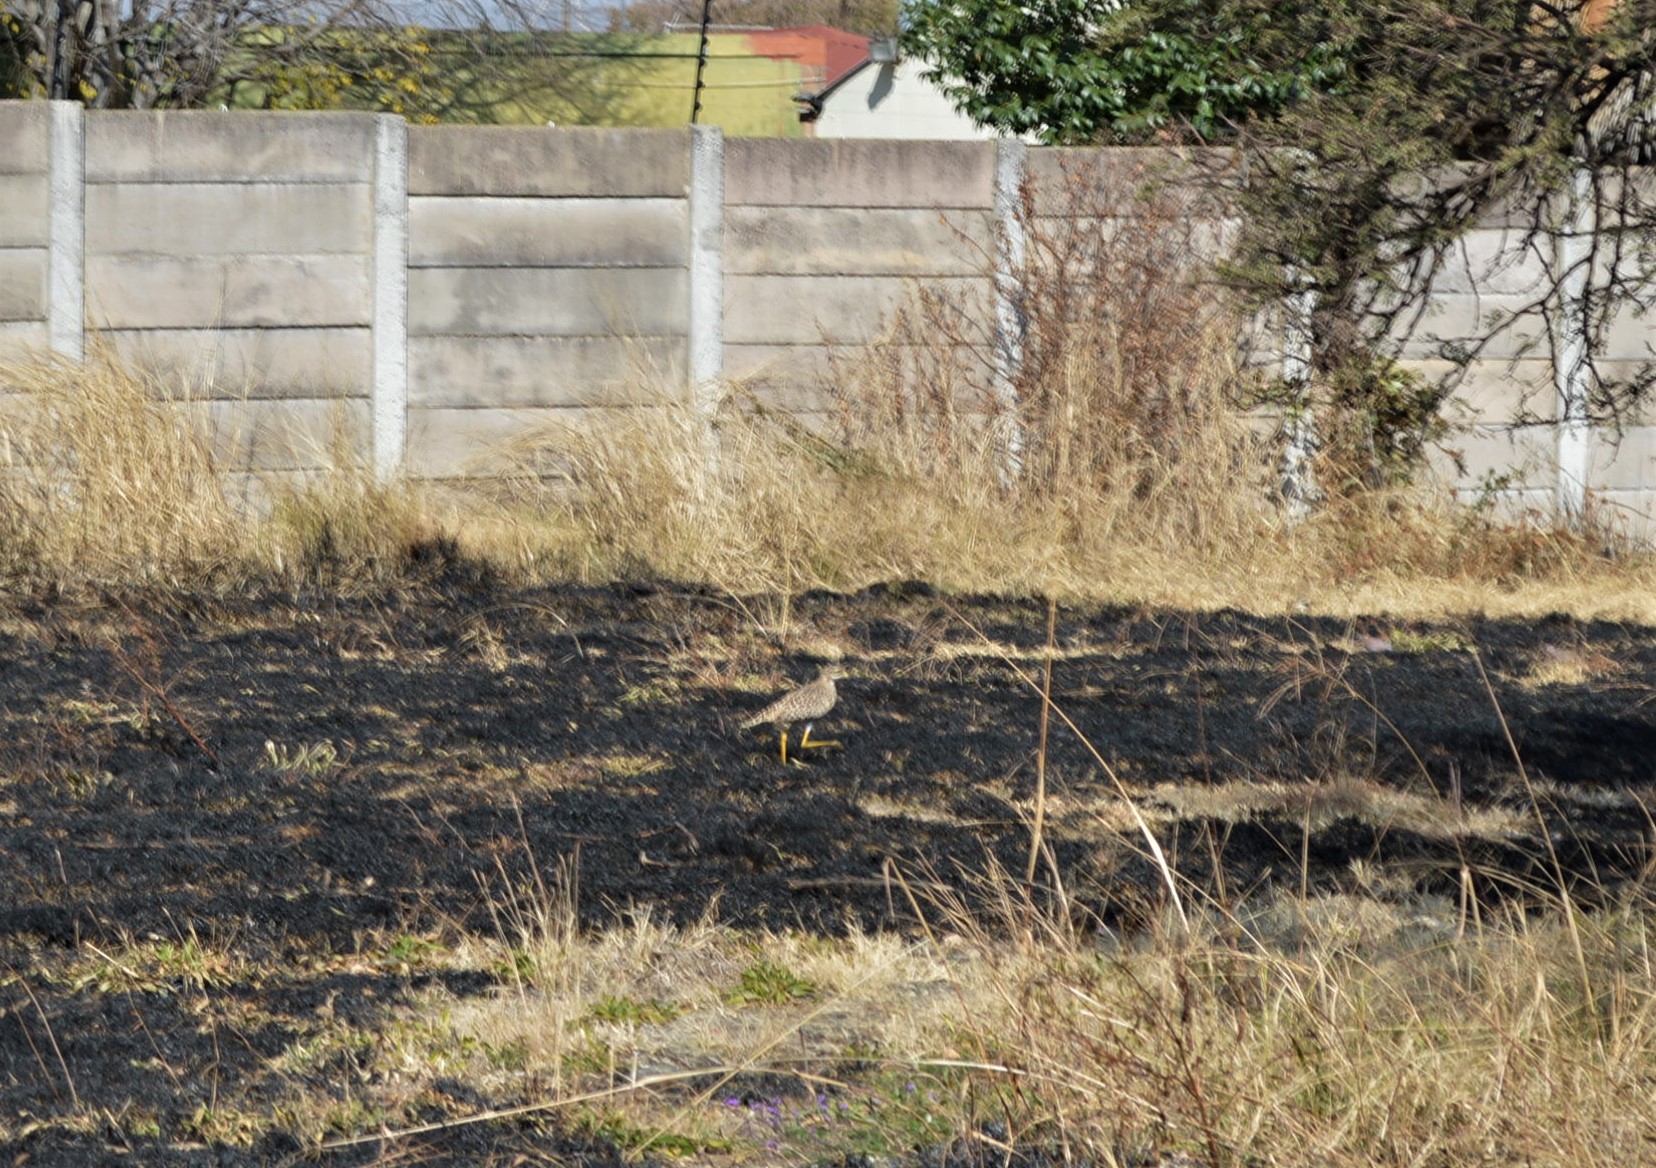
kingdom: Animalia
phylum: Chordata
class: Aves
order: Charadriiformes
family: Burhinidae
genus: Burhinus
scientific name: Burhinus capensis
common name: Spotted thick-knee
